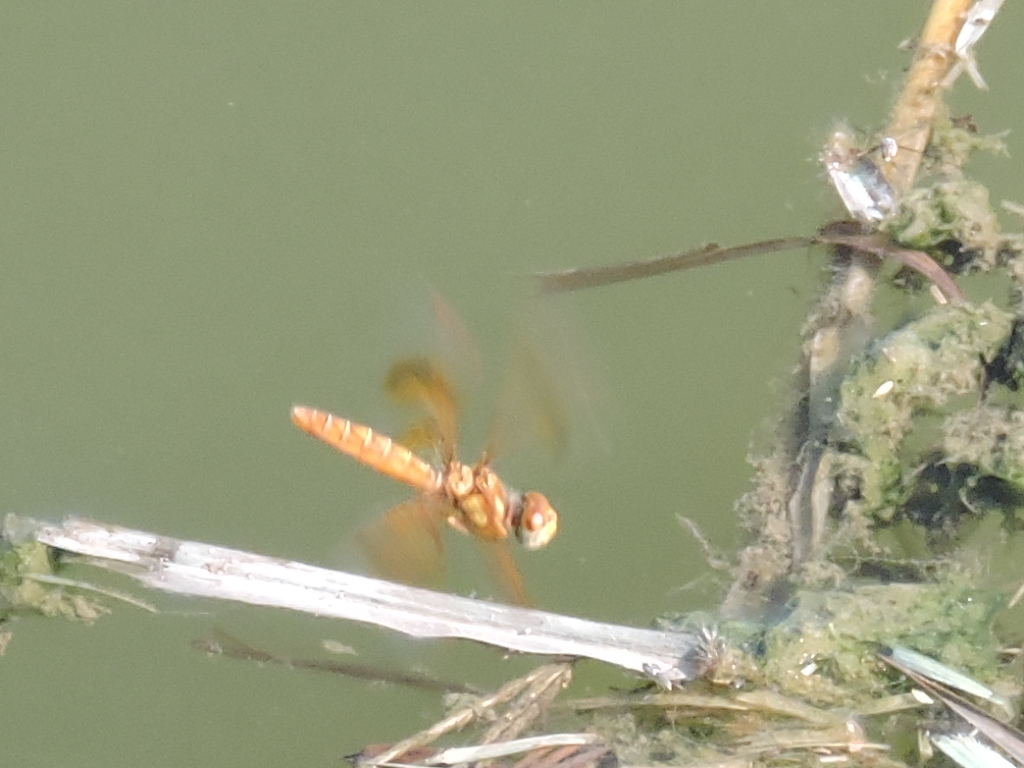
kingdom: Animalia
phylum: Arthropoda
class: Insecta
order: Odonata
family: Libellulidae
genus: Perithemis
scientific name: Perithemis tenera
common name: Eastern amberwing
